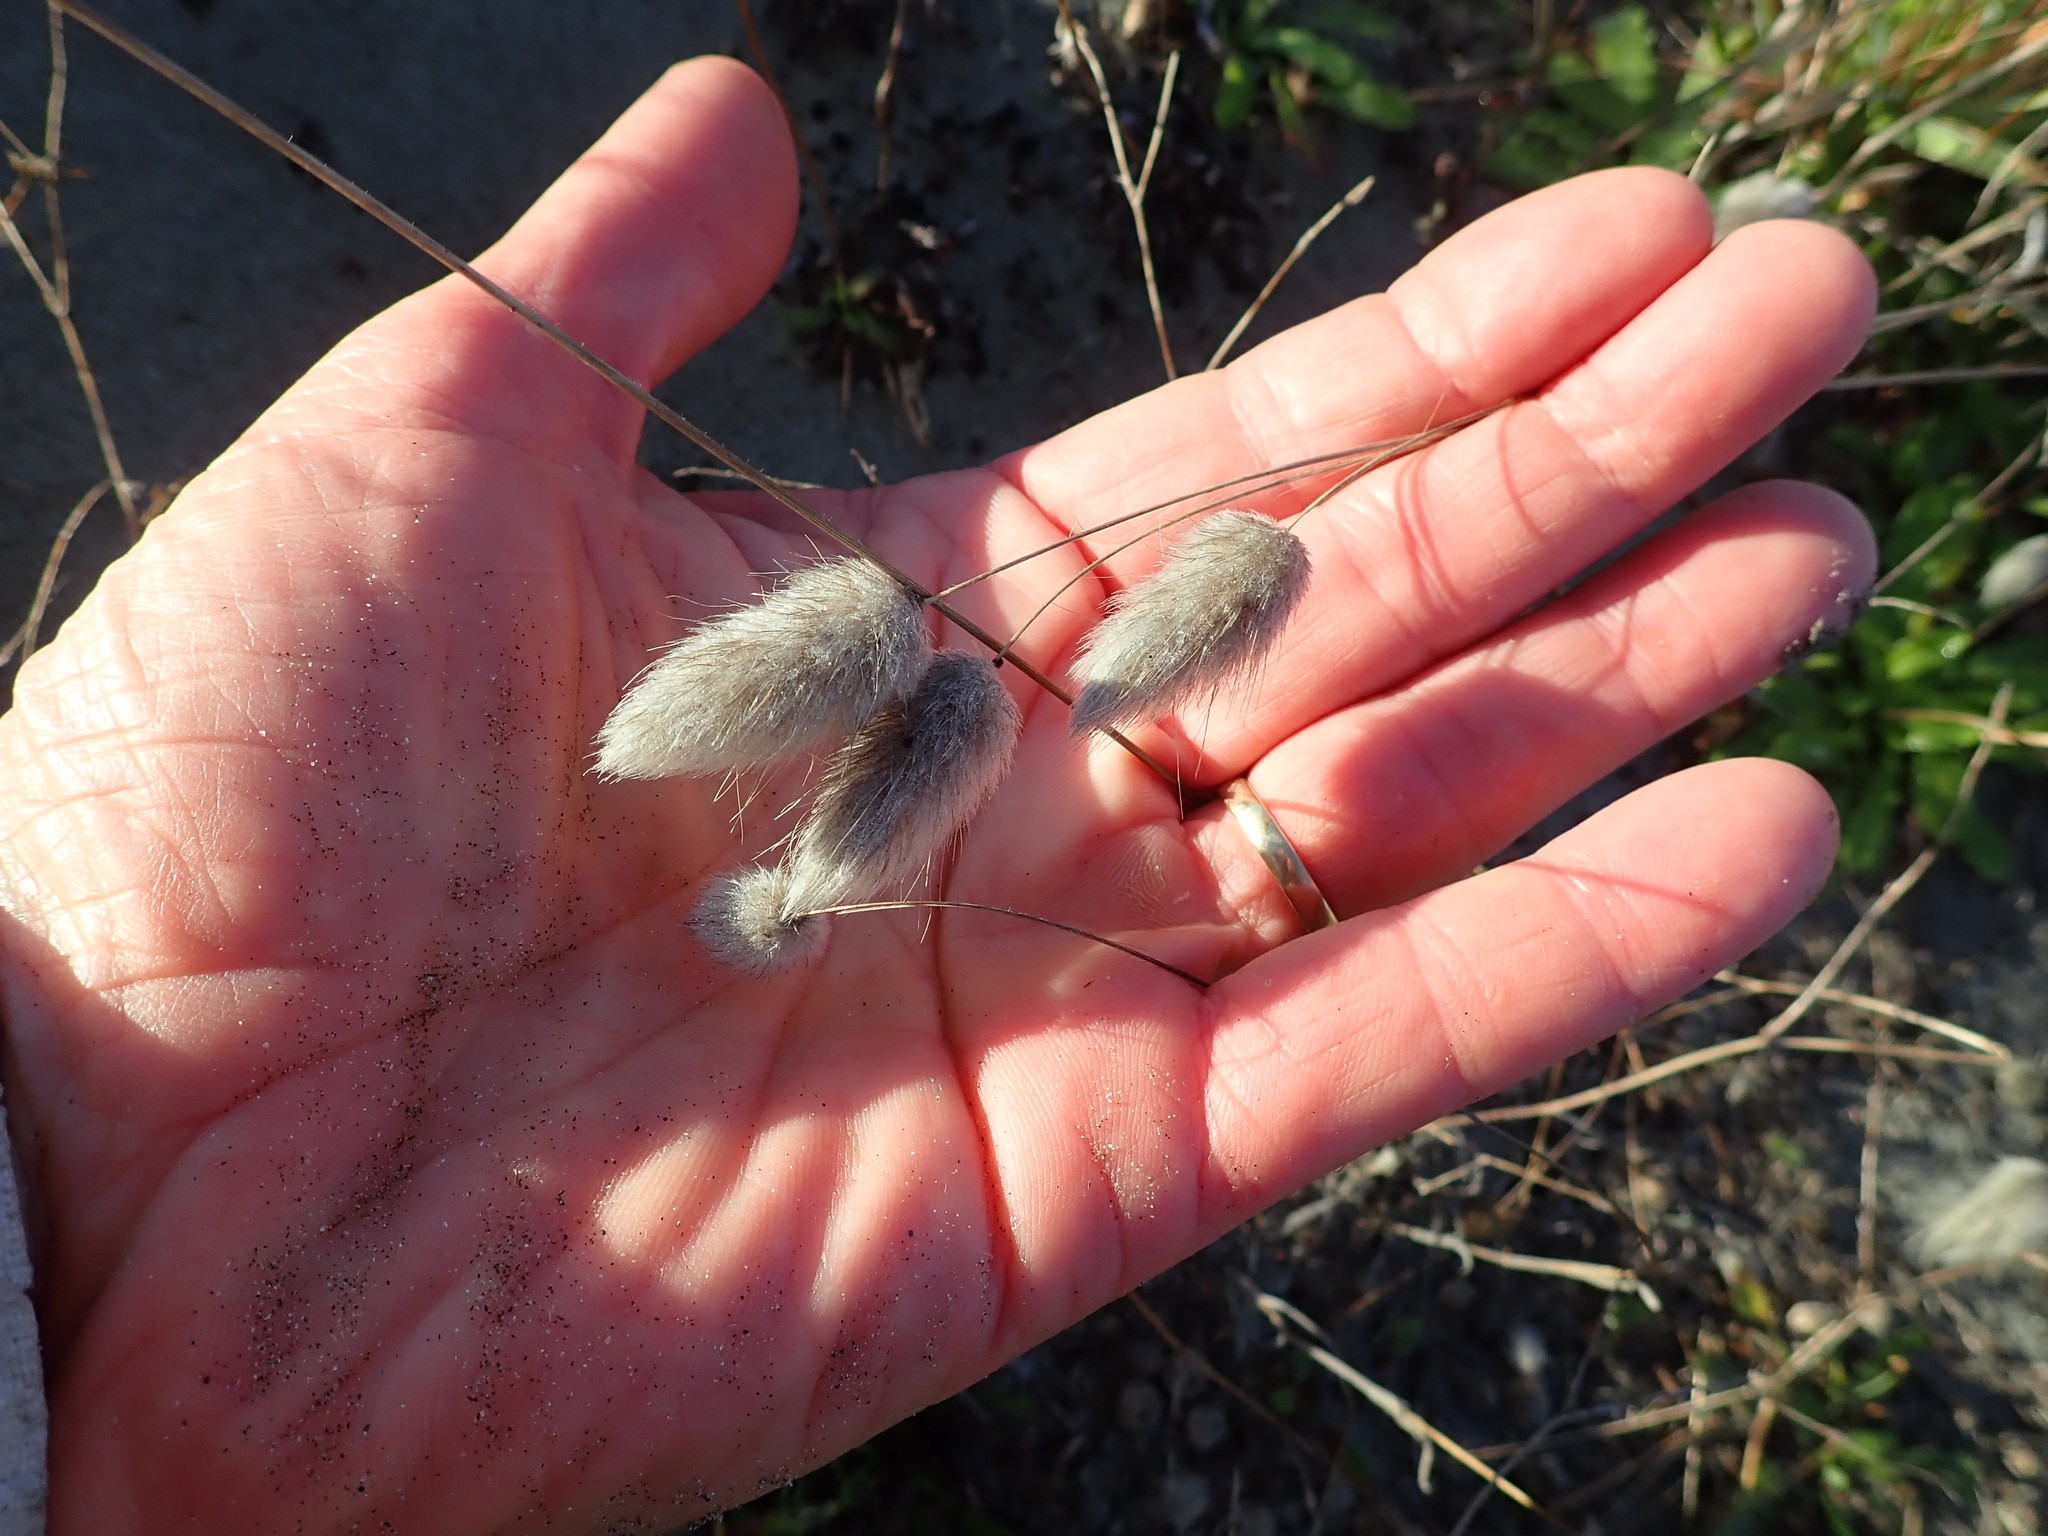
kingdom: Plantae
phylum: Tracheophyta
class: Liliopsida
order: Poales
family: Poaceae
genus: Lagurus
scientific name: Lagurus ovatus
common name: Hare's-tail
